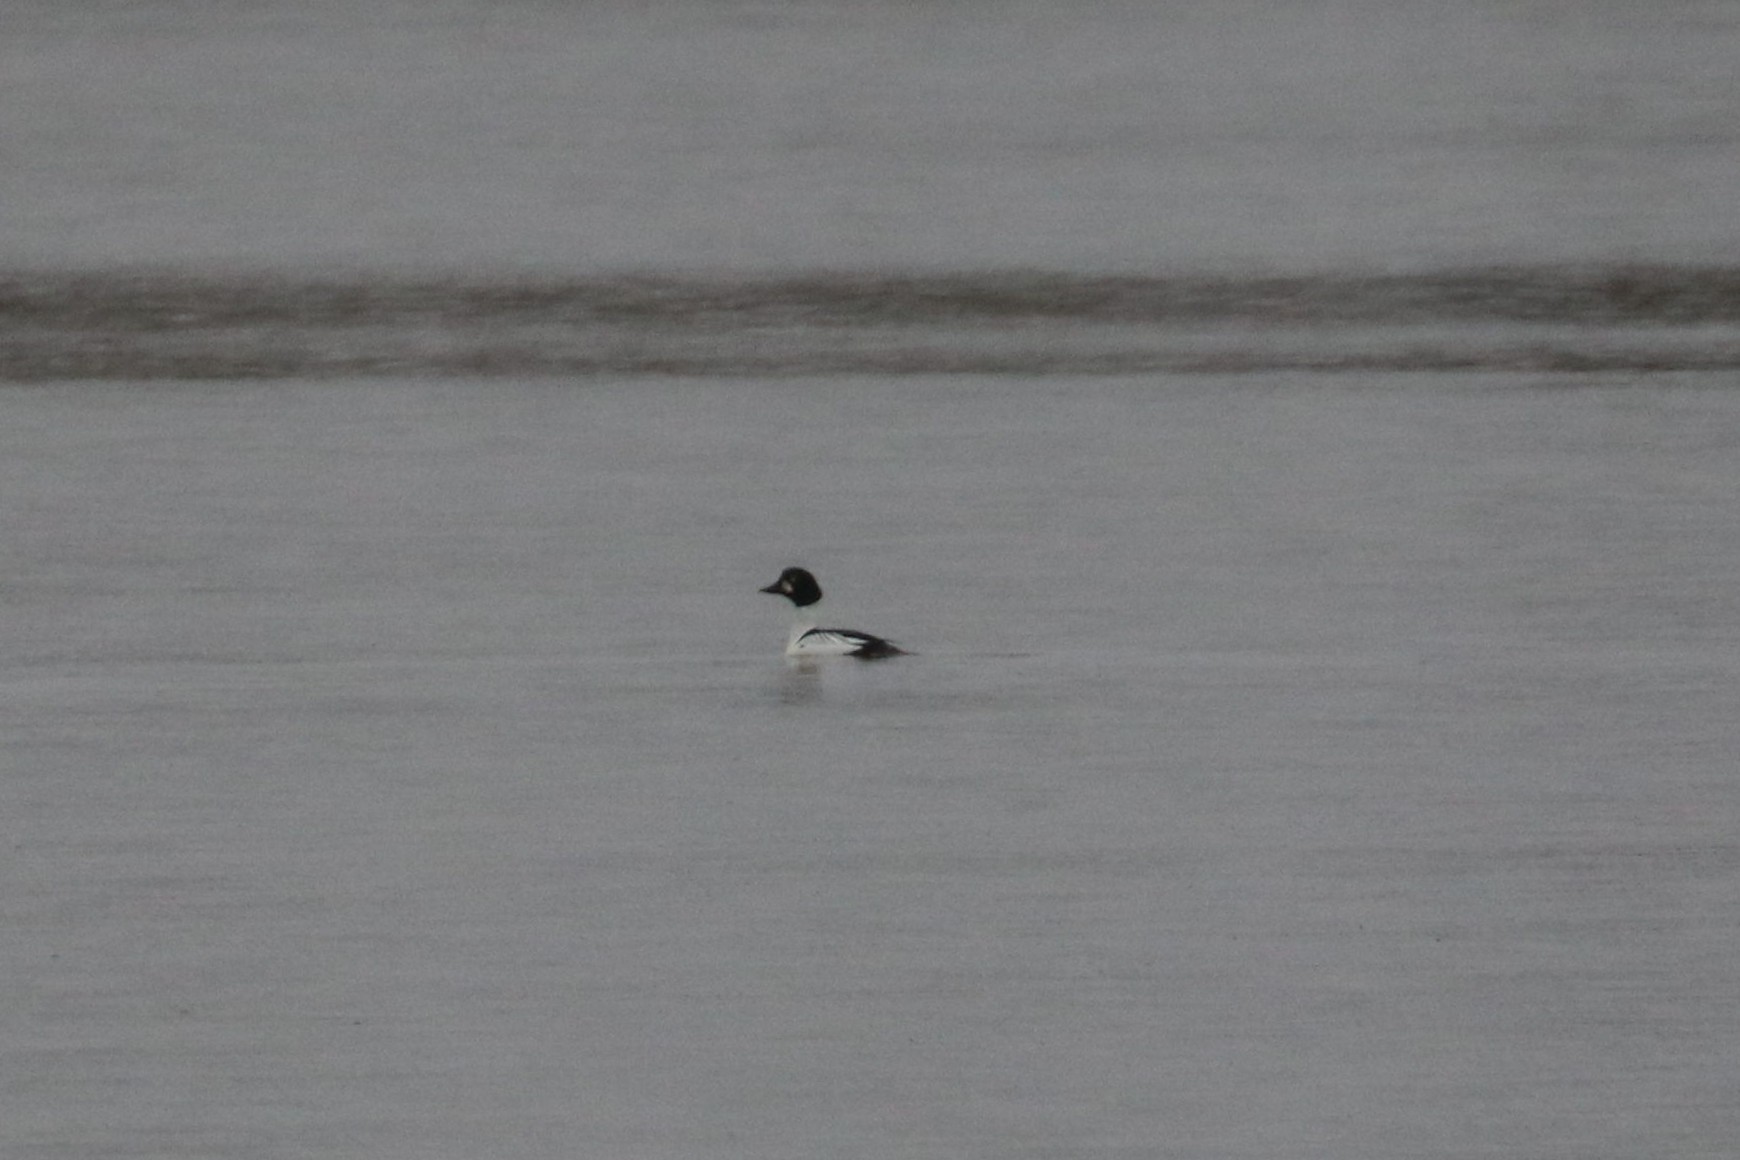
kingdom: Animalia
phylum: Chordata
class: Aves
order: Anseriformes
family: Anatidae
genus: Bucephala
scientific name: Bucephala clangula
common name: Common goldeneye
